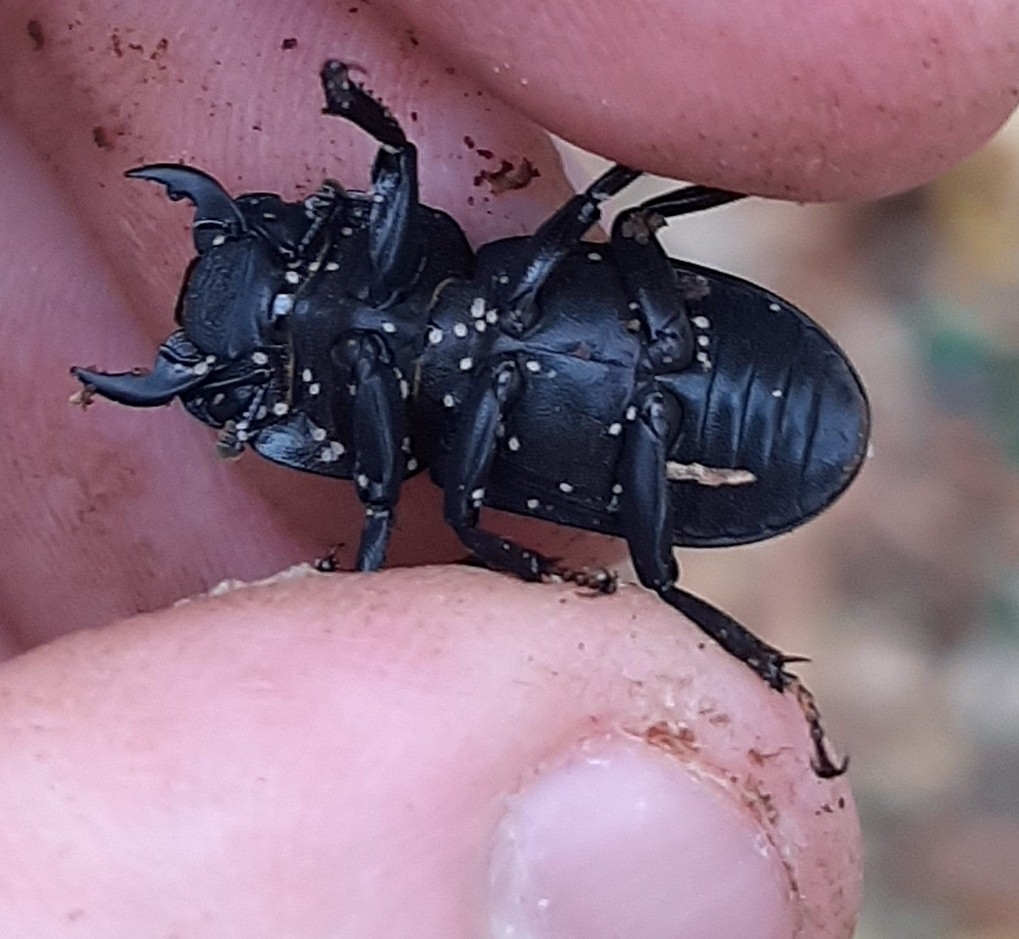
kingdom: Animalia
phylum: Arthropoda
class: Insecta
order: Coleoptera
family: Lucanidae
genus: Dorcus
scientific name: Dorcus parallelipipedus
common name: Lesser stag beetle
